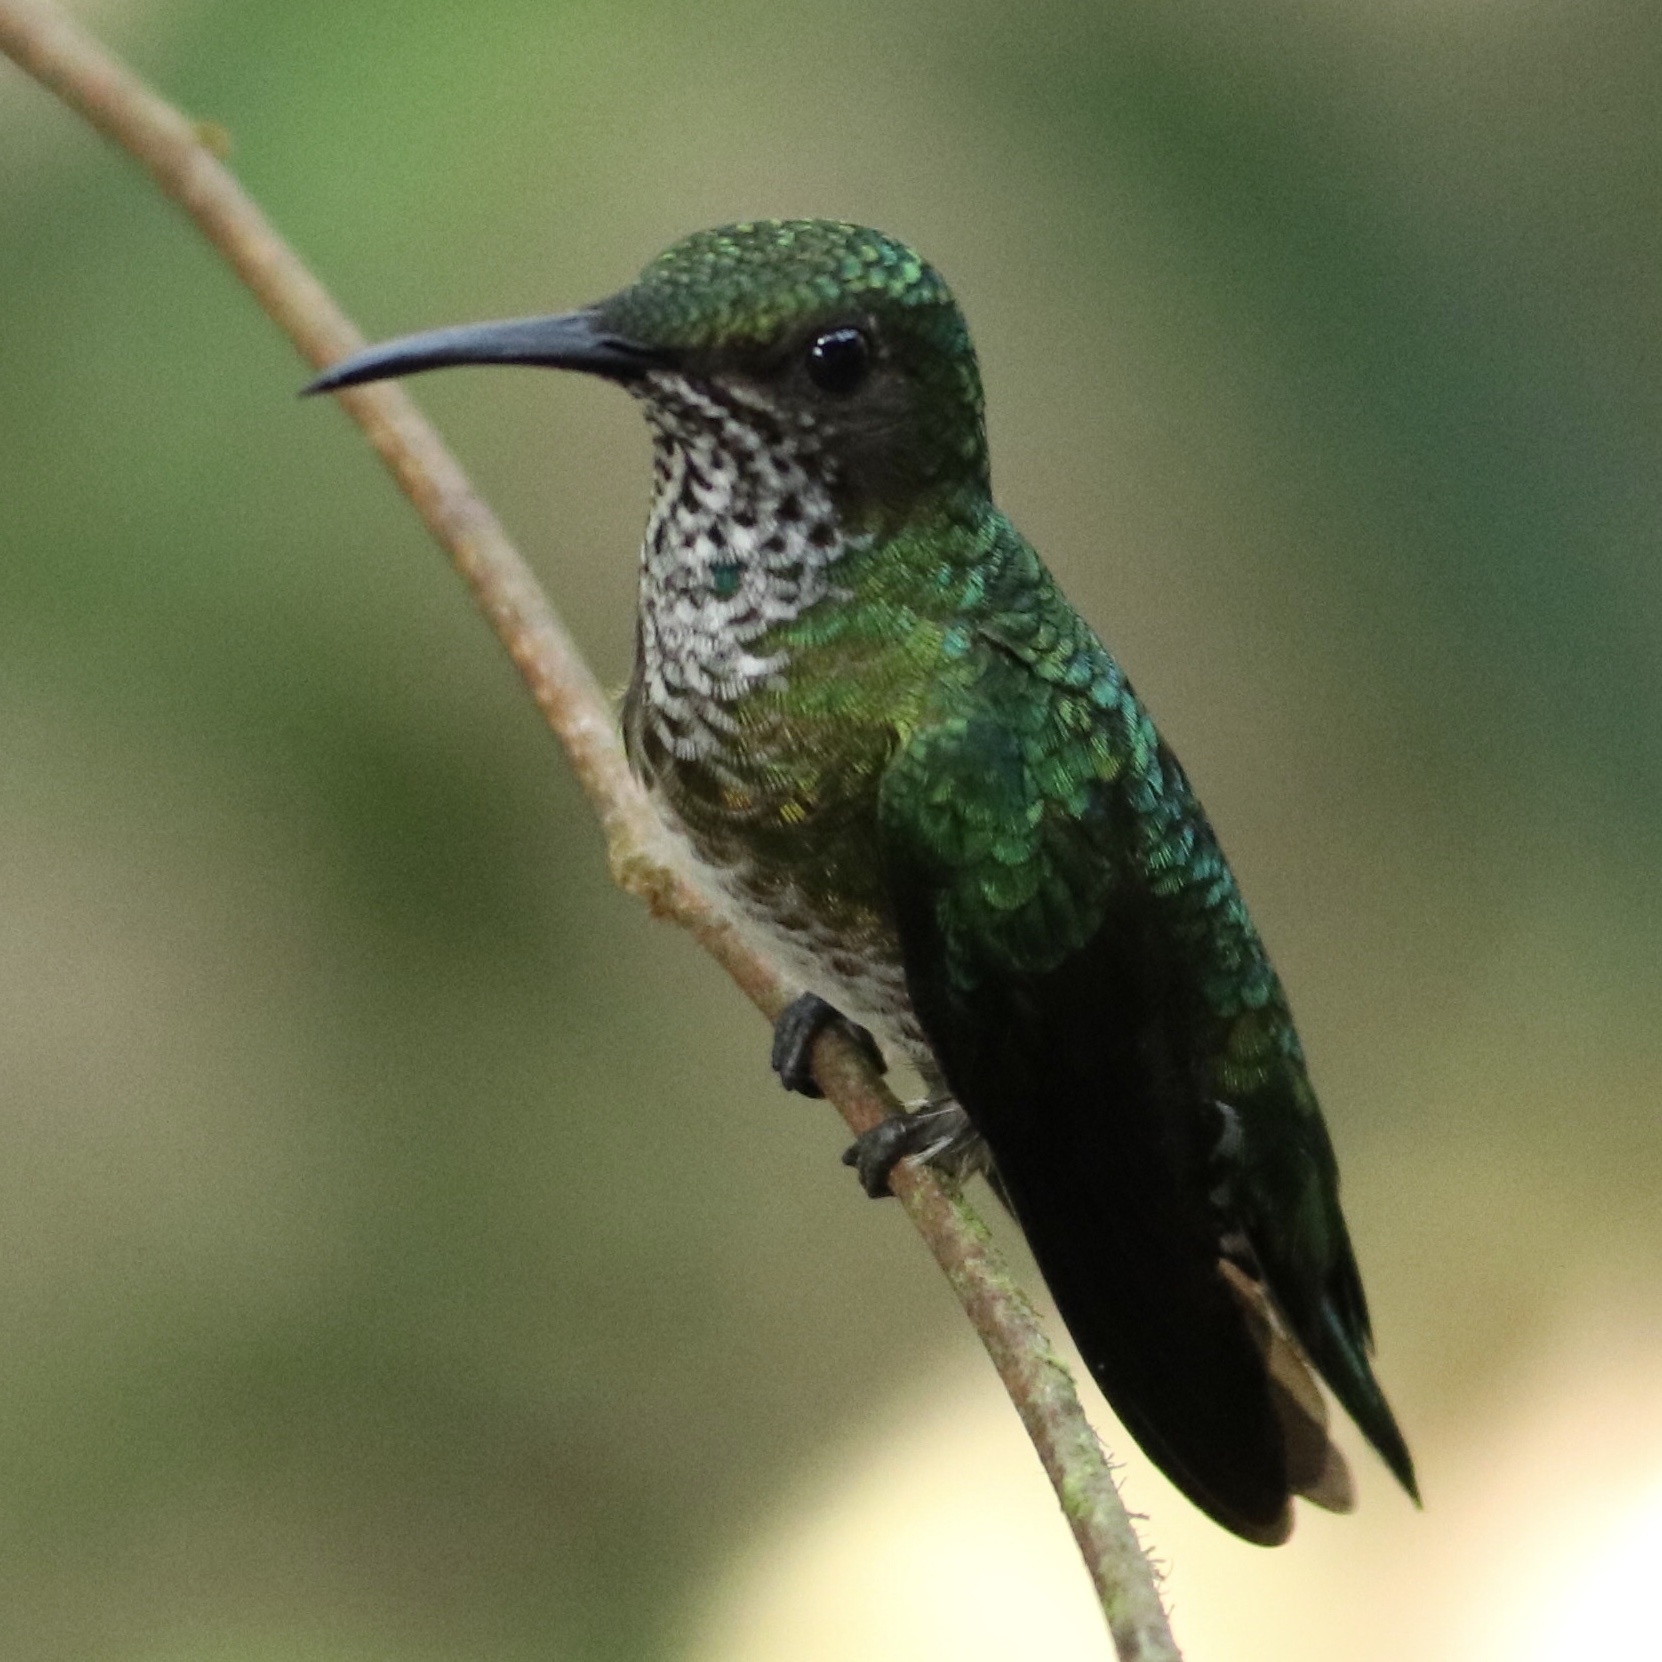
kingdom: Animalia
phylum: Chordata
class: Aves
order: Apodiformes
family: Trochilidae
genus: Florisuga
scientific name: Florisuga mellivora
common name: White-necked jacobin
